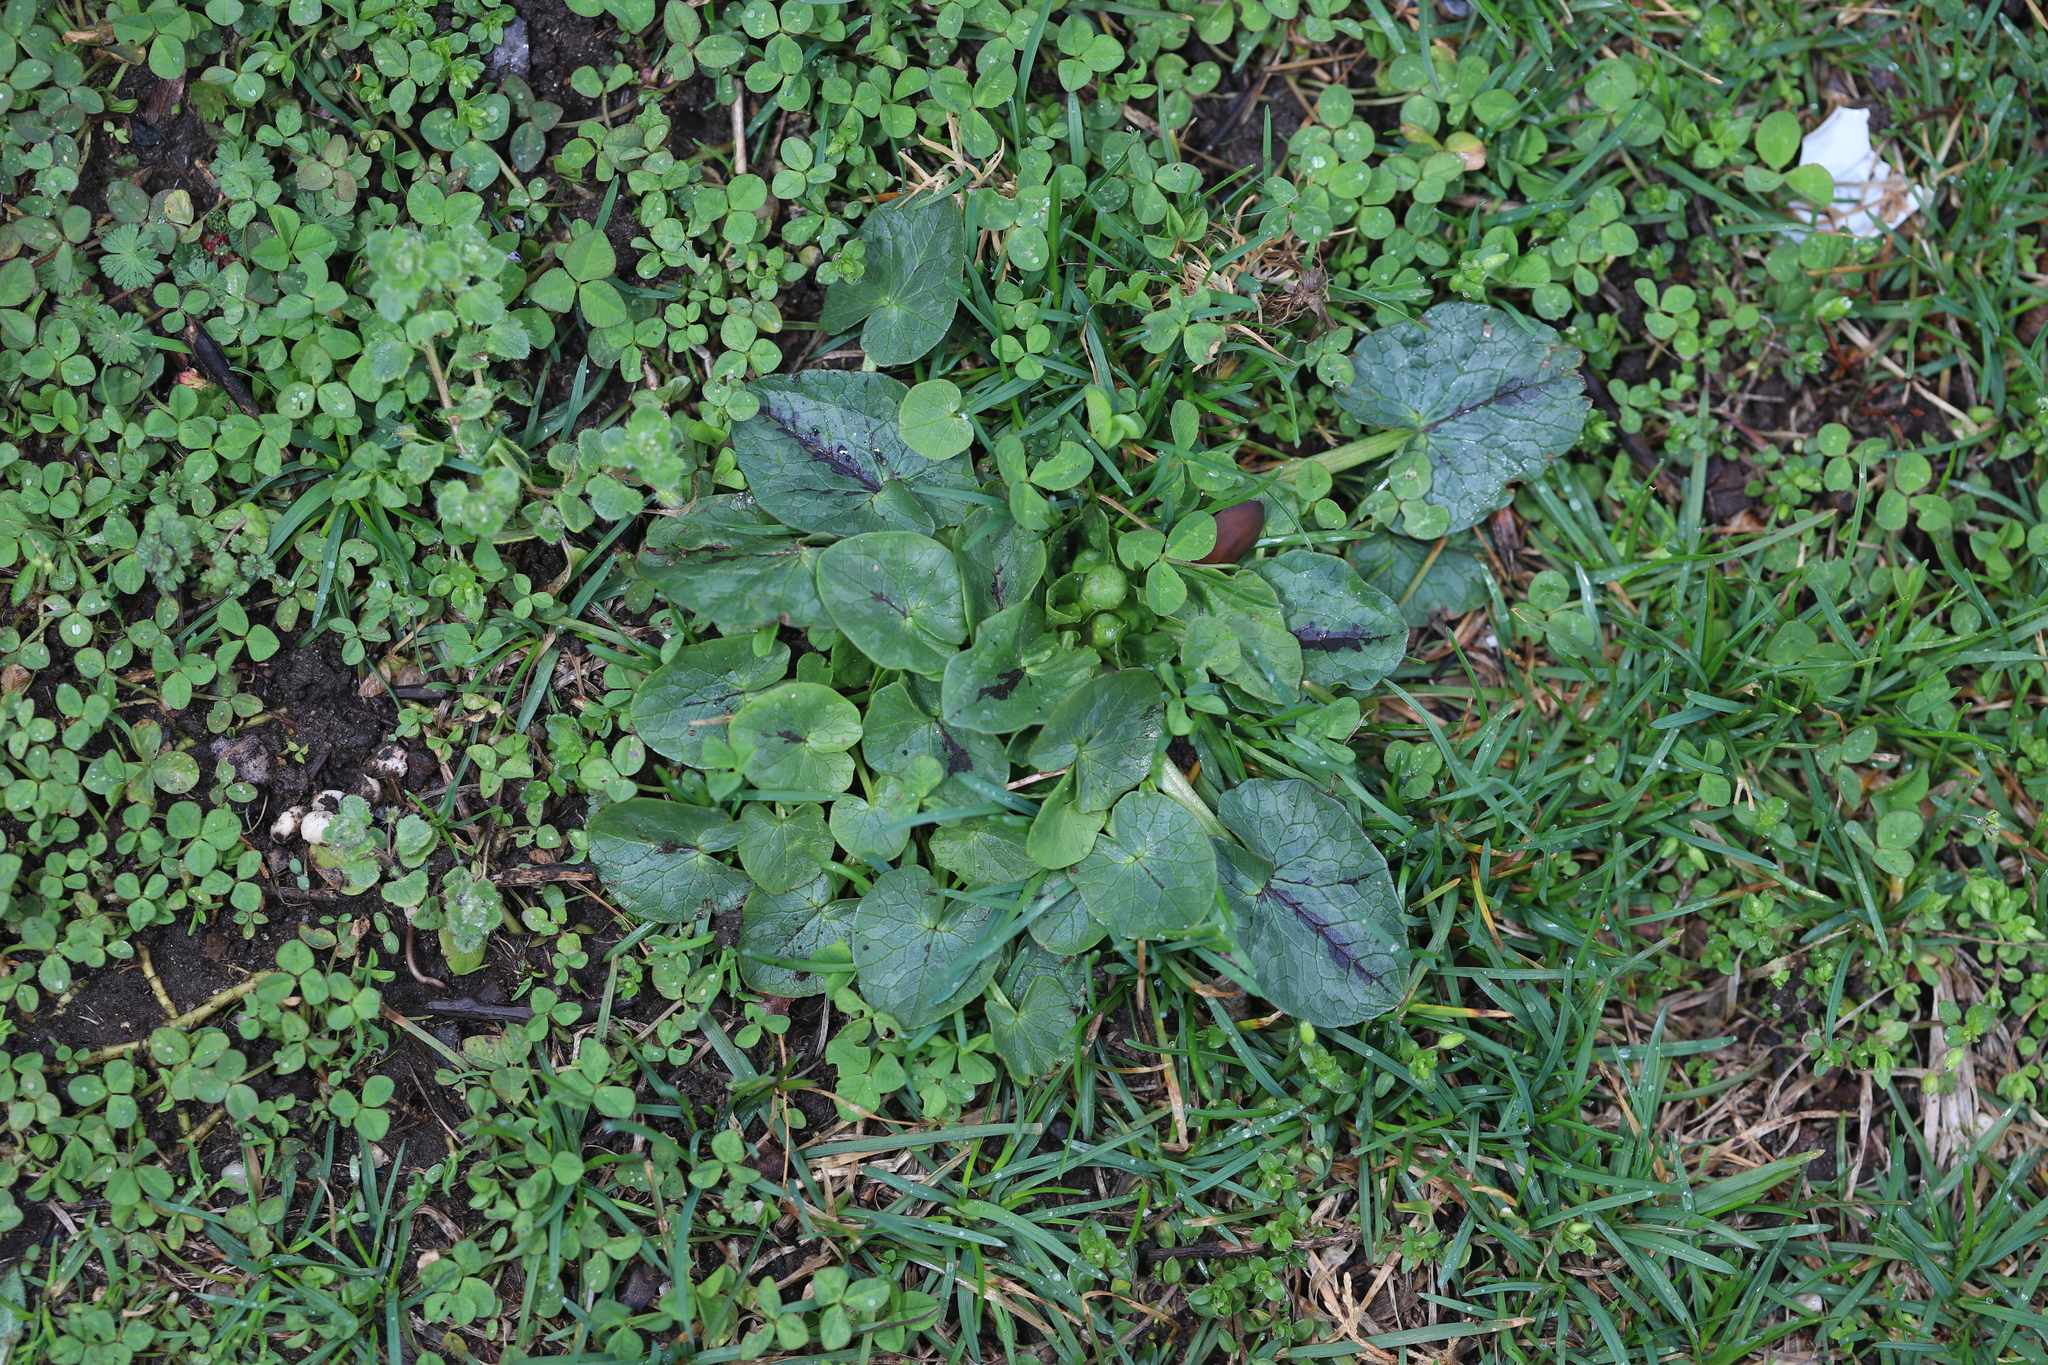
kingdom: Plantae
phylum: Tracheophyta
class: Magnoliopsida
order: Ranunculales
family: Ranunculaceae
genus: Ficaria
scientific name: Ficaria verna
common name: Lesser celandine
